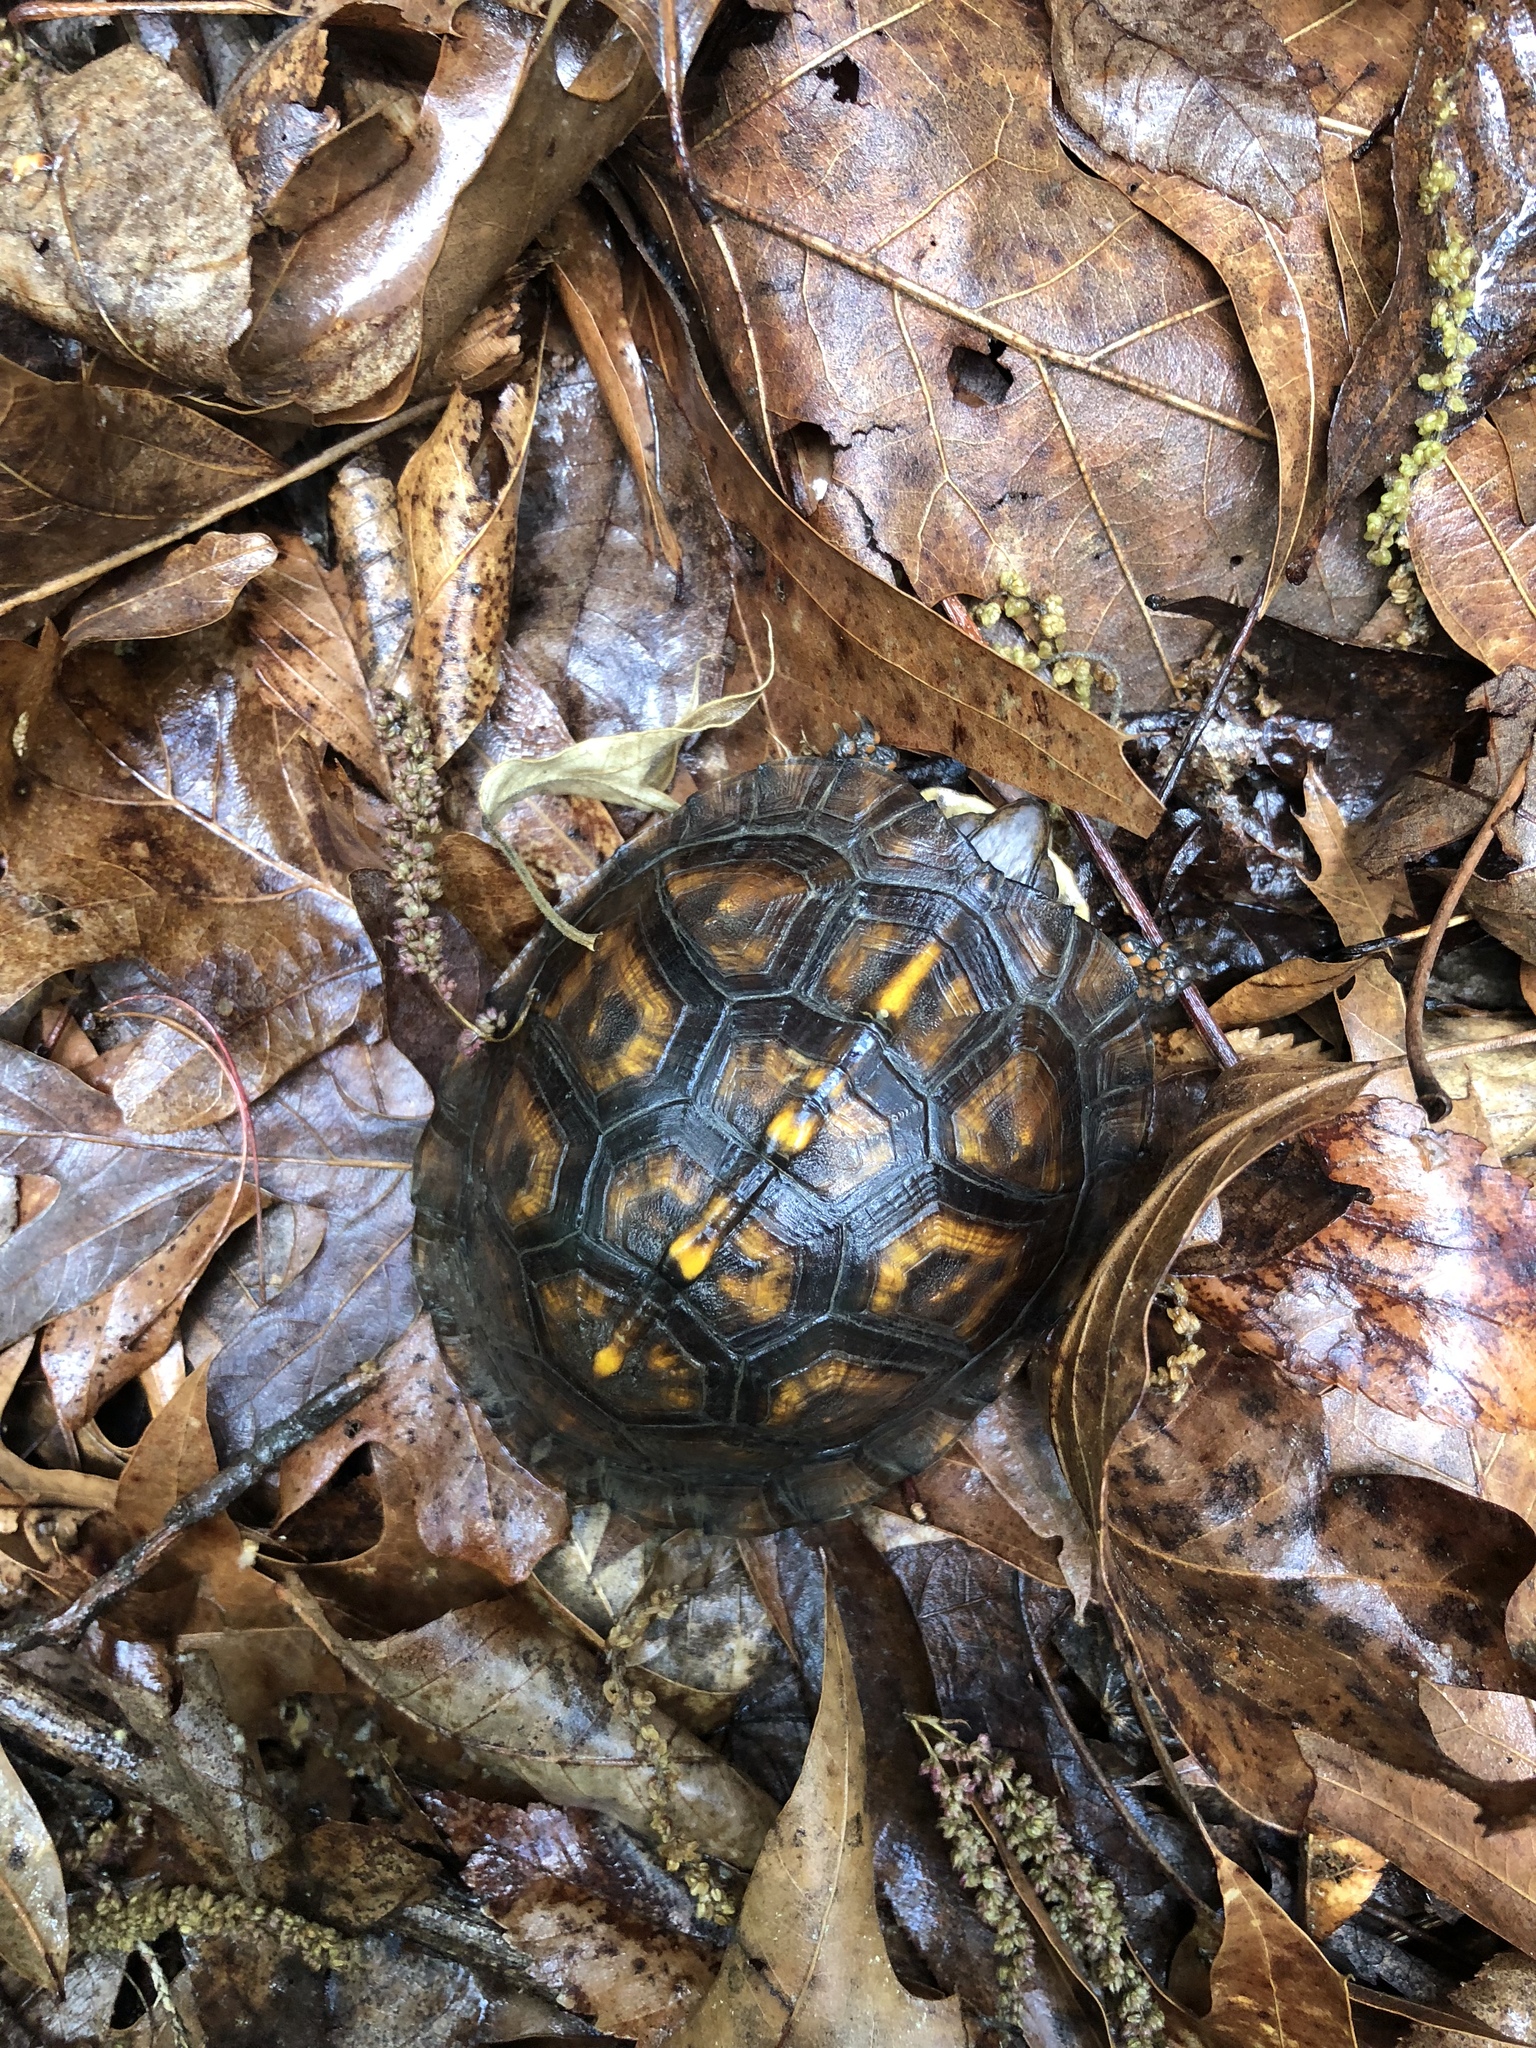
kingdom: Animalia
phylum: Chordata
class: Testudines
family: Emydidae
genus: Terrapene
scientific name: Terrapene carolina
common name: Common box turtle
